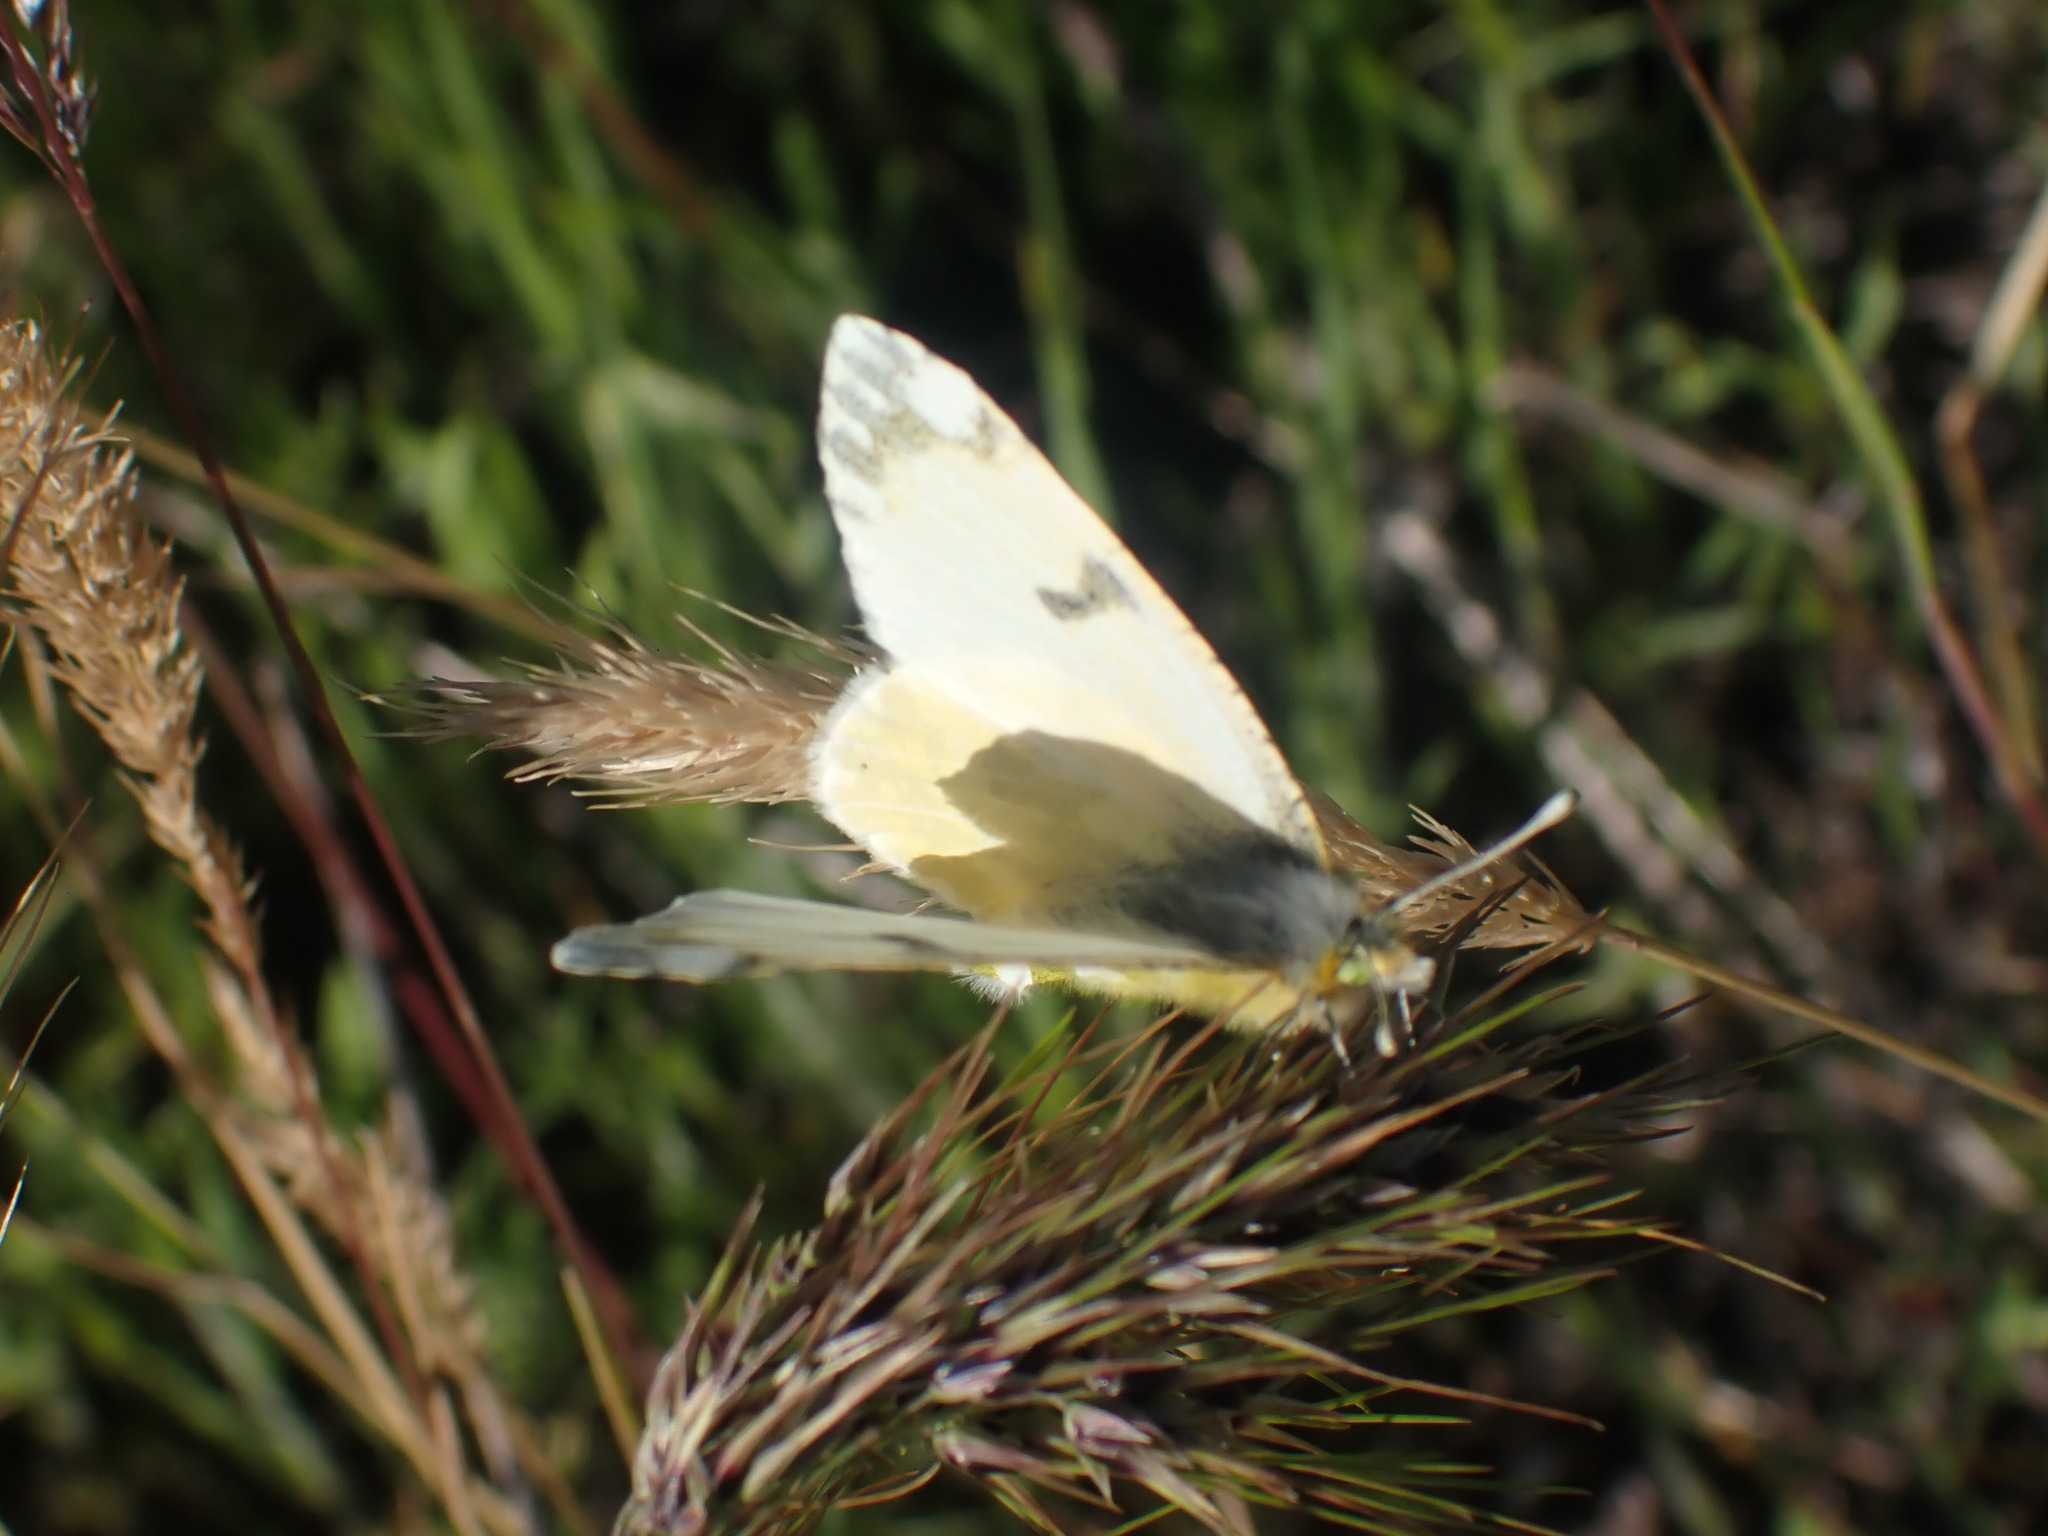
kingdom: Animalia
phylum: Arthropoda
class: Insecta
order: Lepidoptera
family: Pieridae
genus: Euchloe
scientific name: Euchloe ausonides
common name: Creamy marblewing
